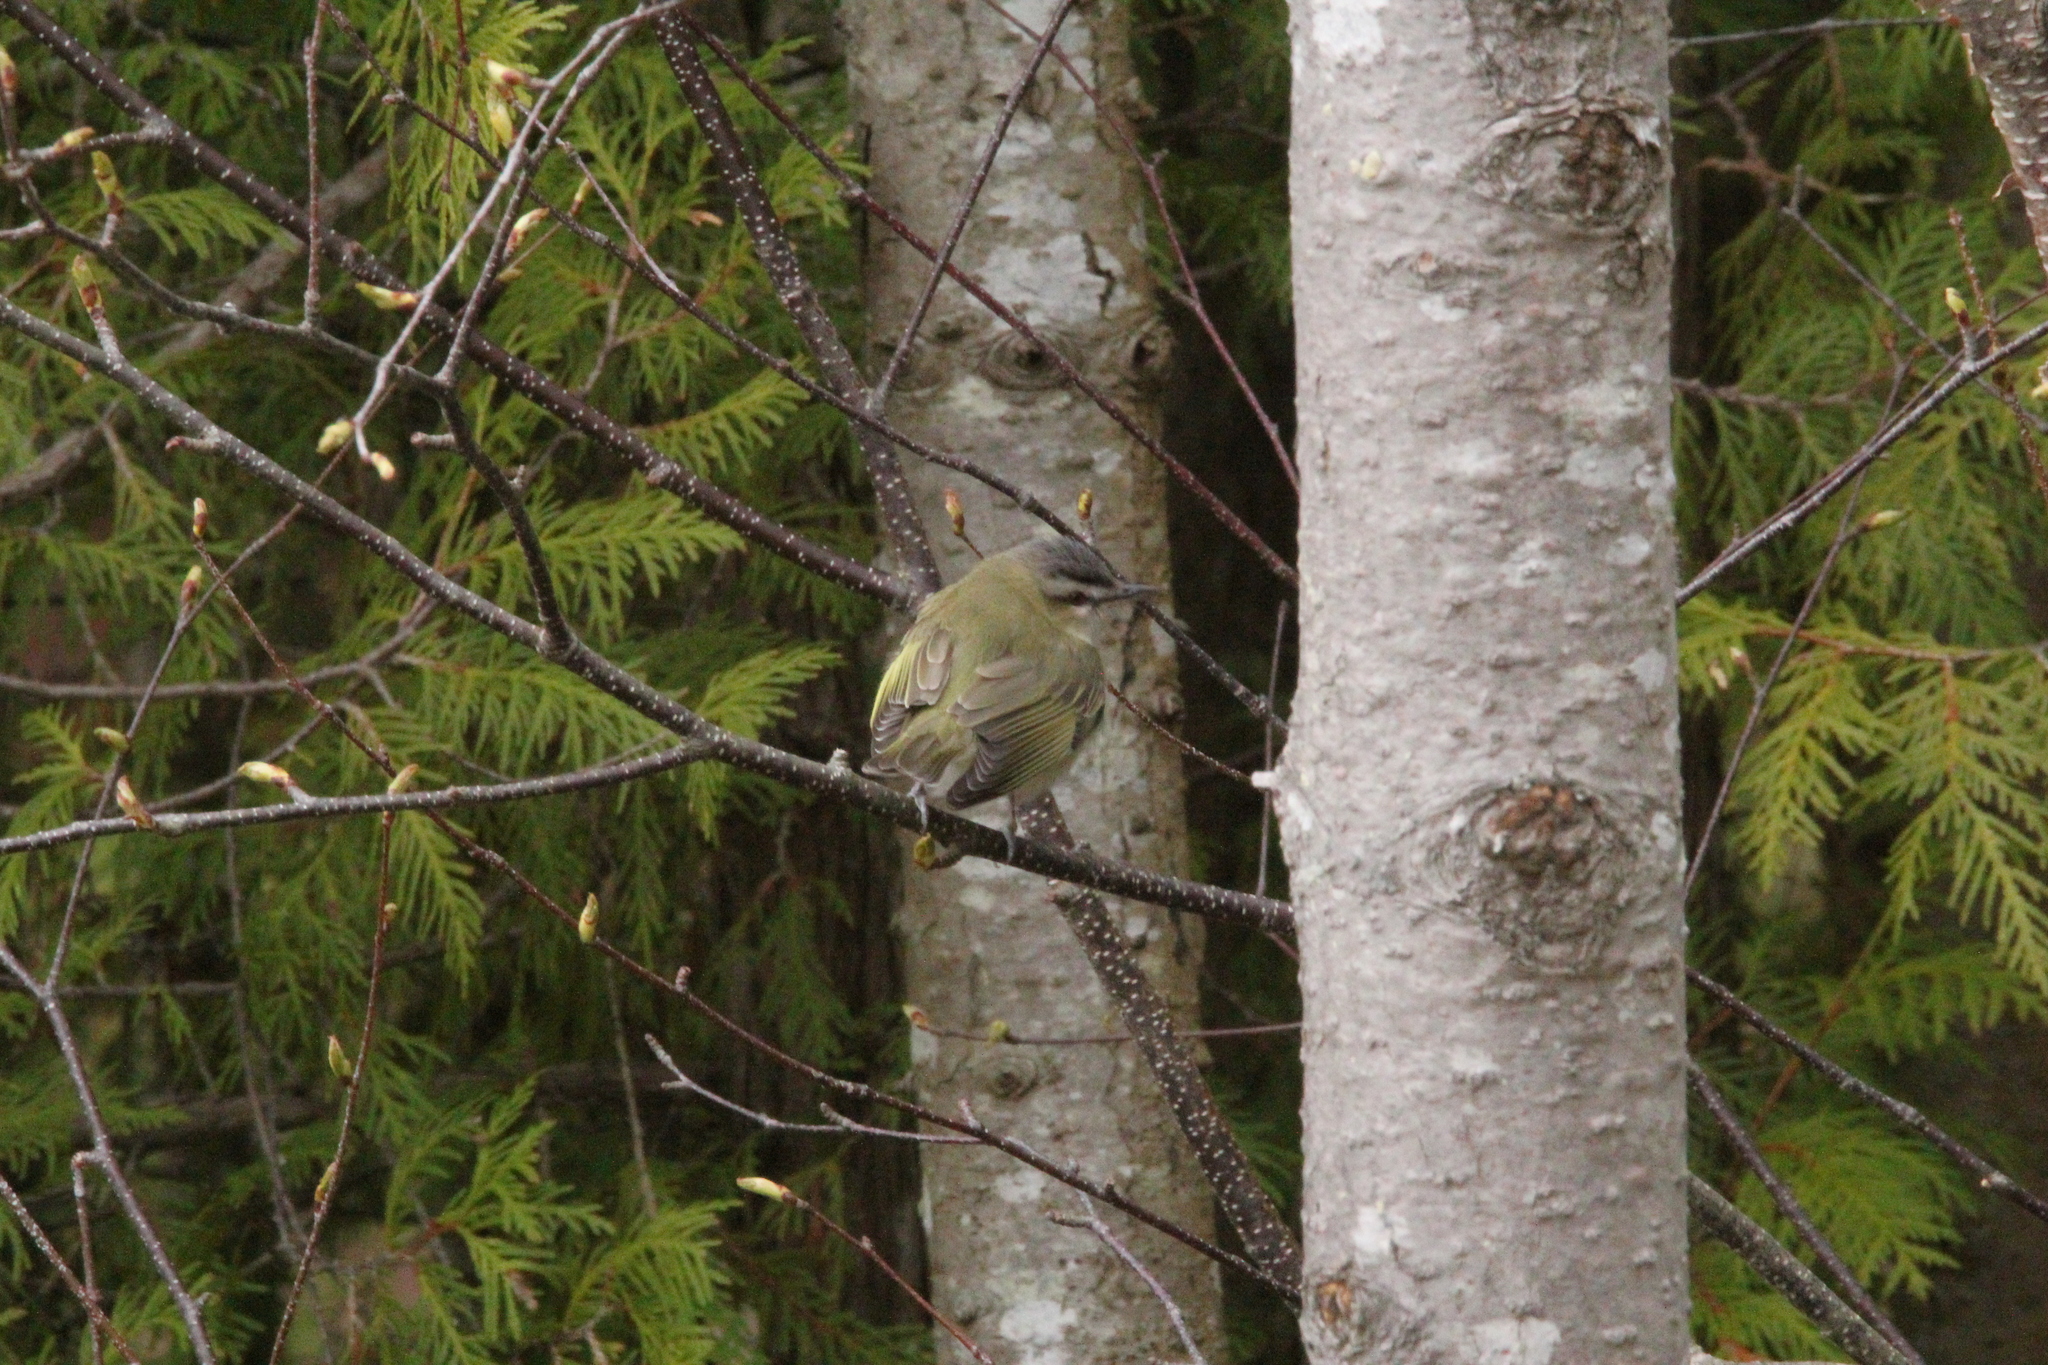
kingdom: Animalia
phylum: Chordata
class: Aves
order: Passeriformes
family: Vireonidae
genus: Vireo
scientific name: Vireo olivaceus
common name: Red-eyed vireo
